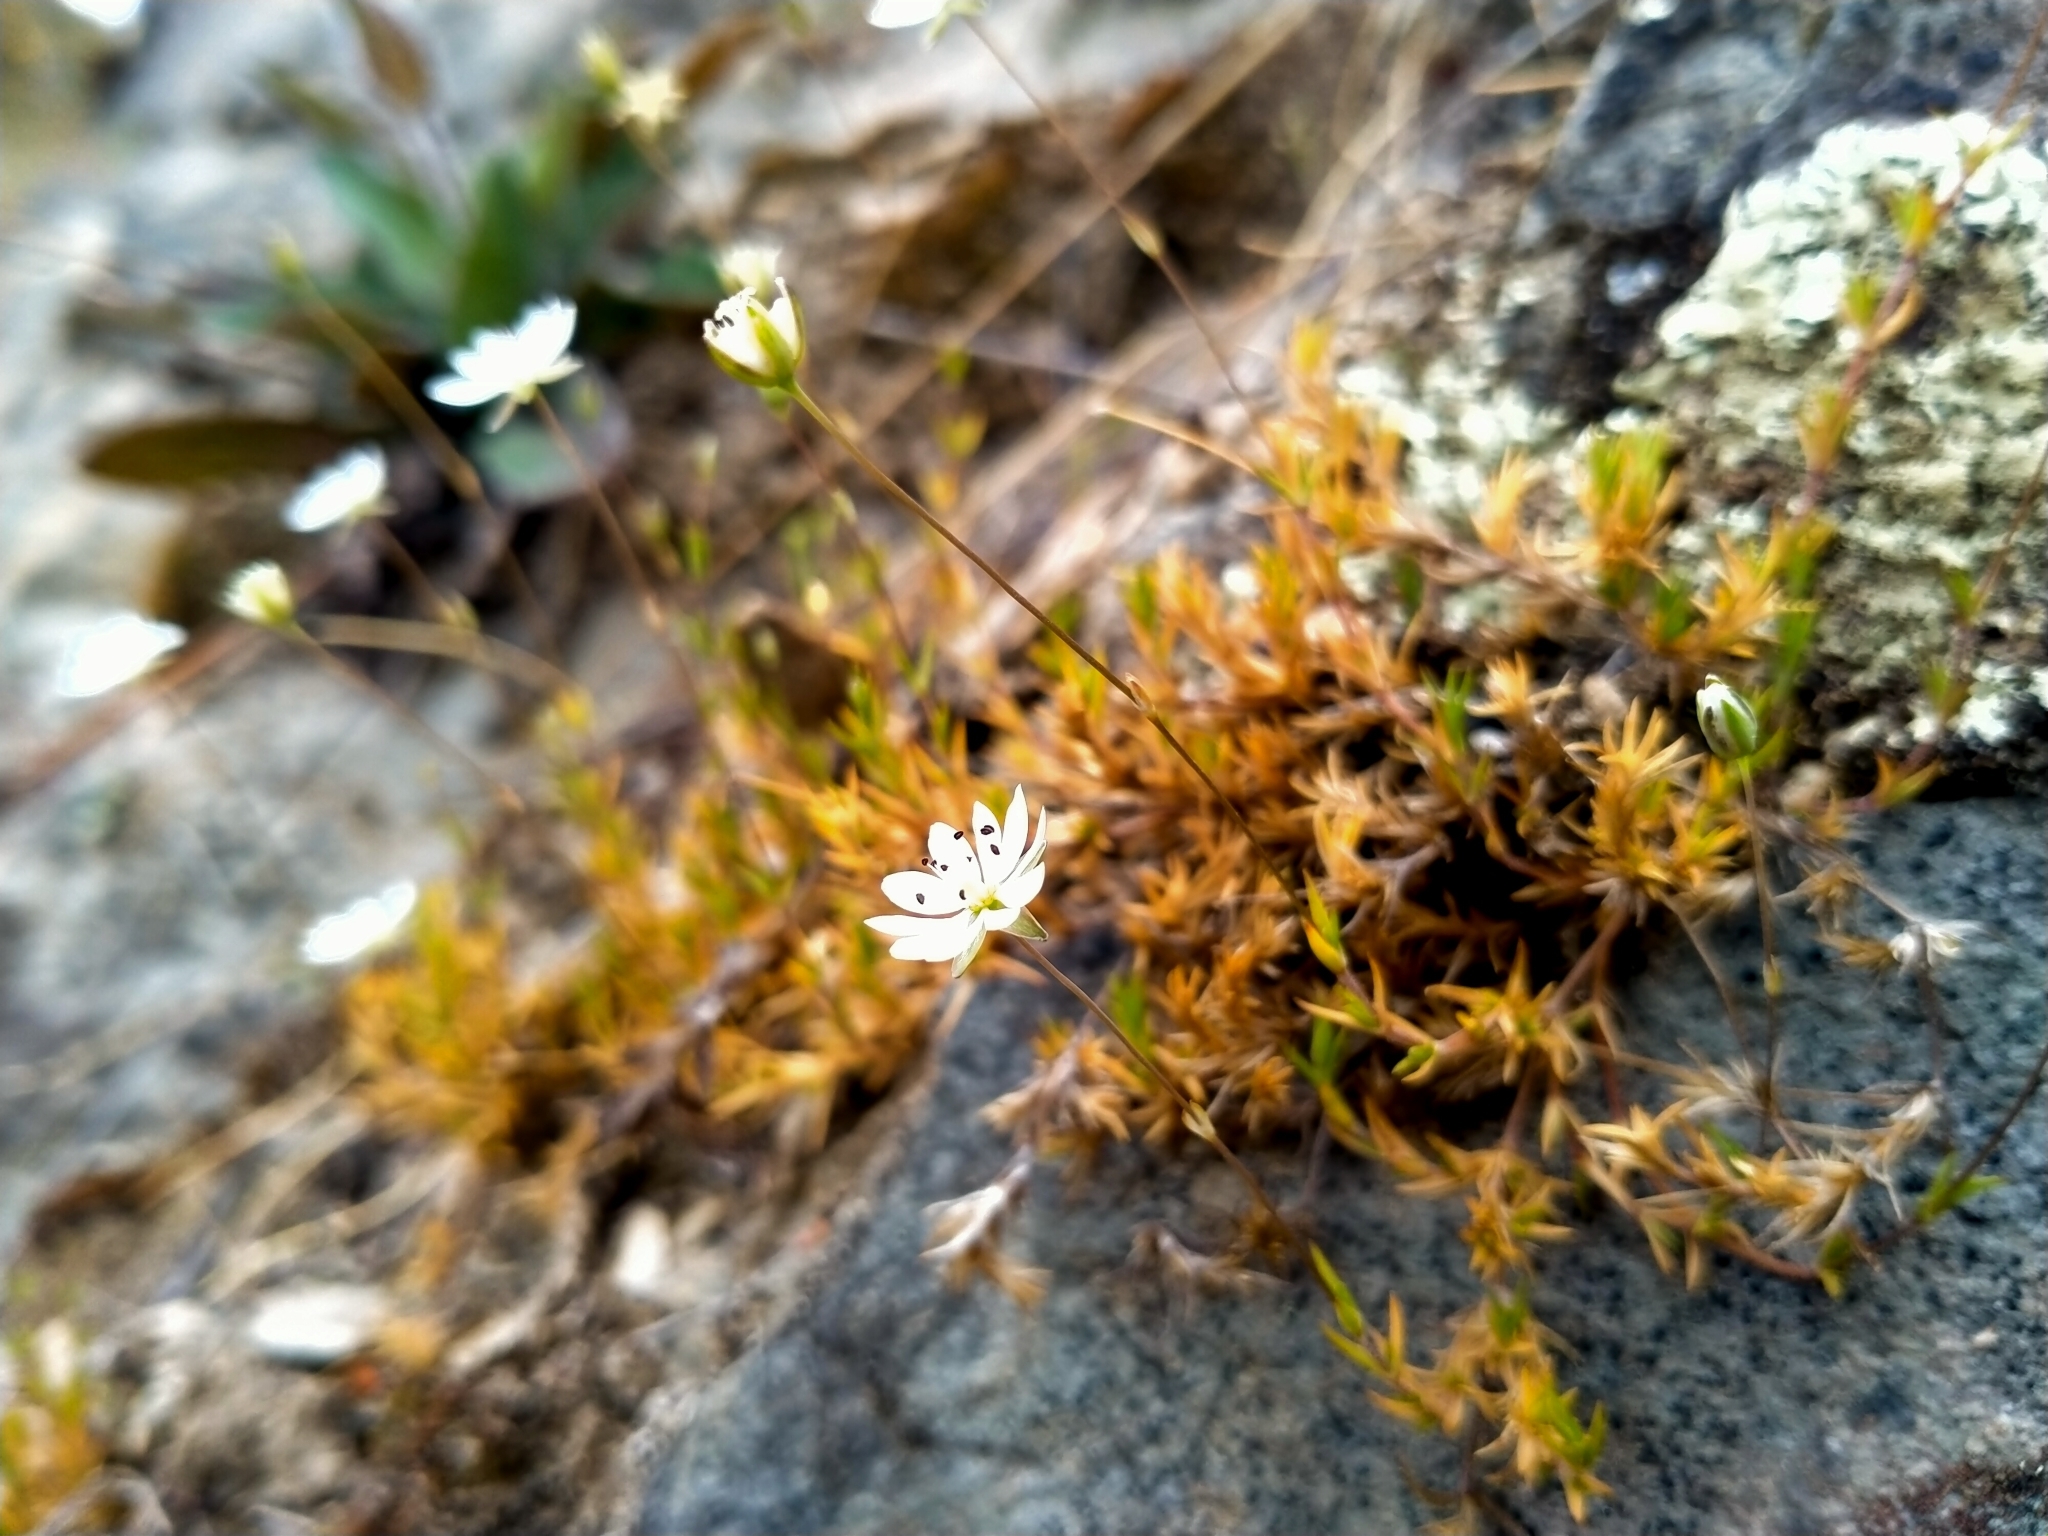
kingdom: Plantae
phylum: Tracheophyta
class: Magnoliopsida
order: Caryophyllales
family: Caryophyllaceae
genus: Stellaria
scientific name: Stellaria gracilenta
